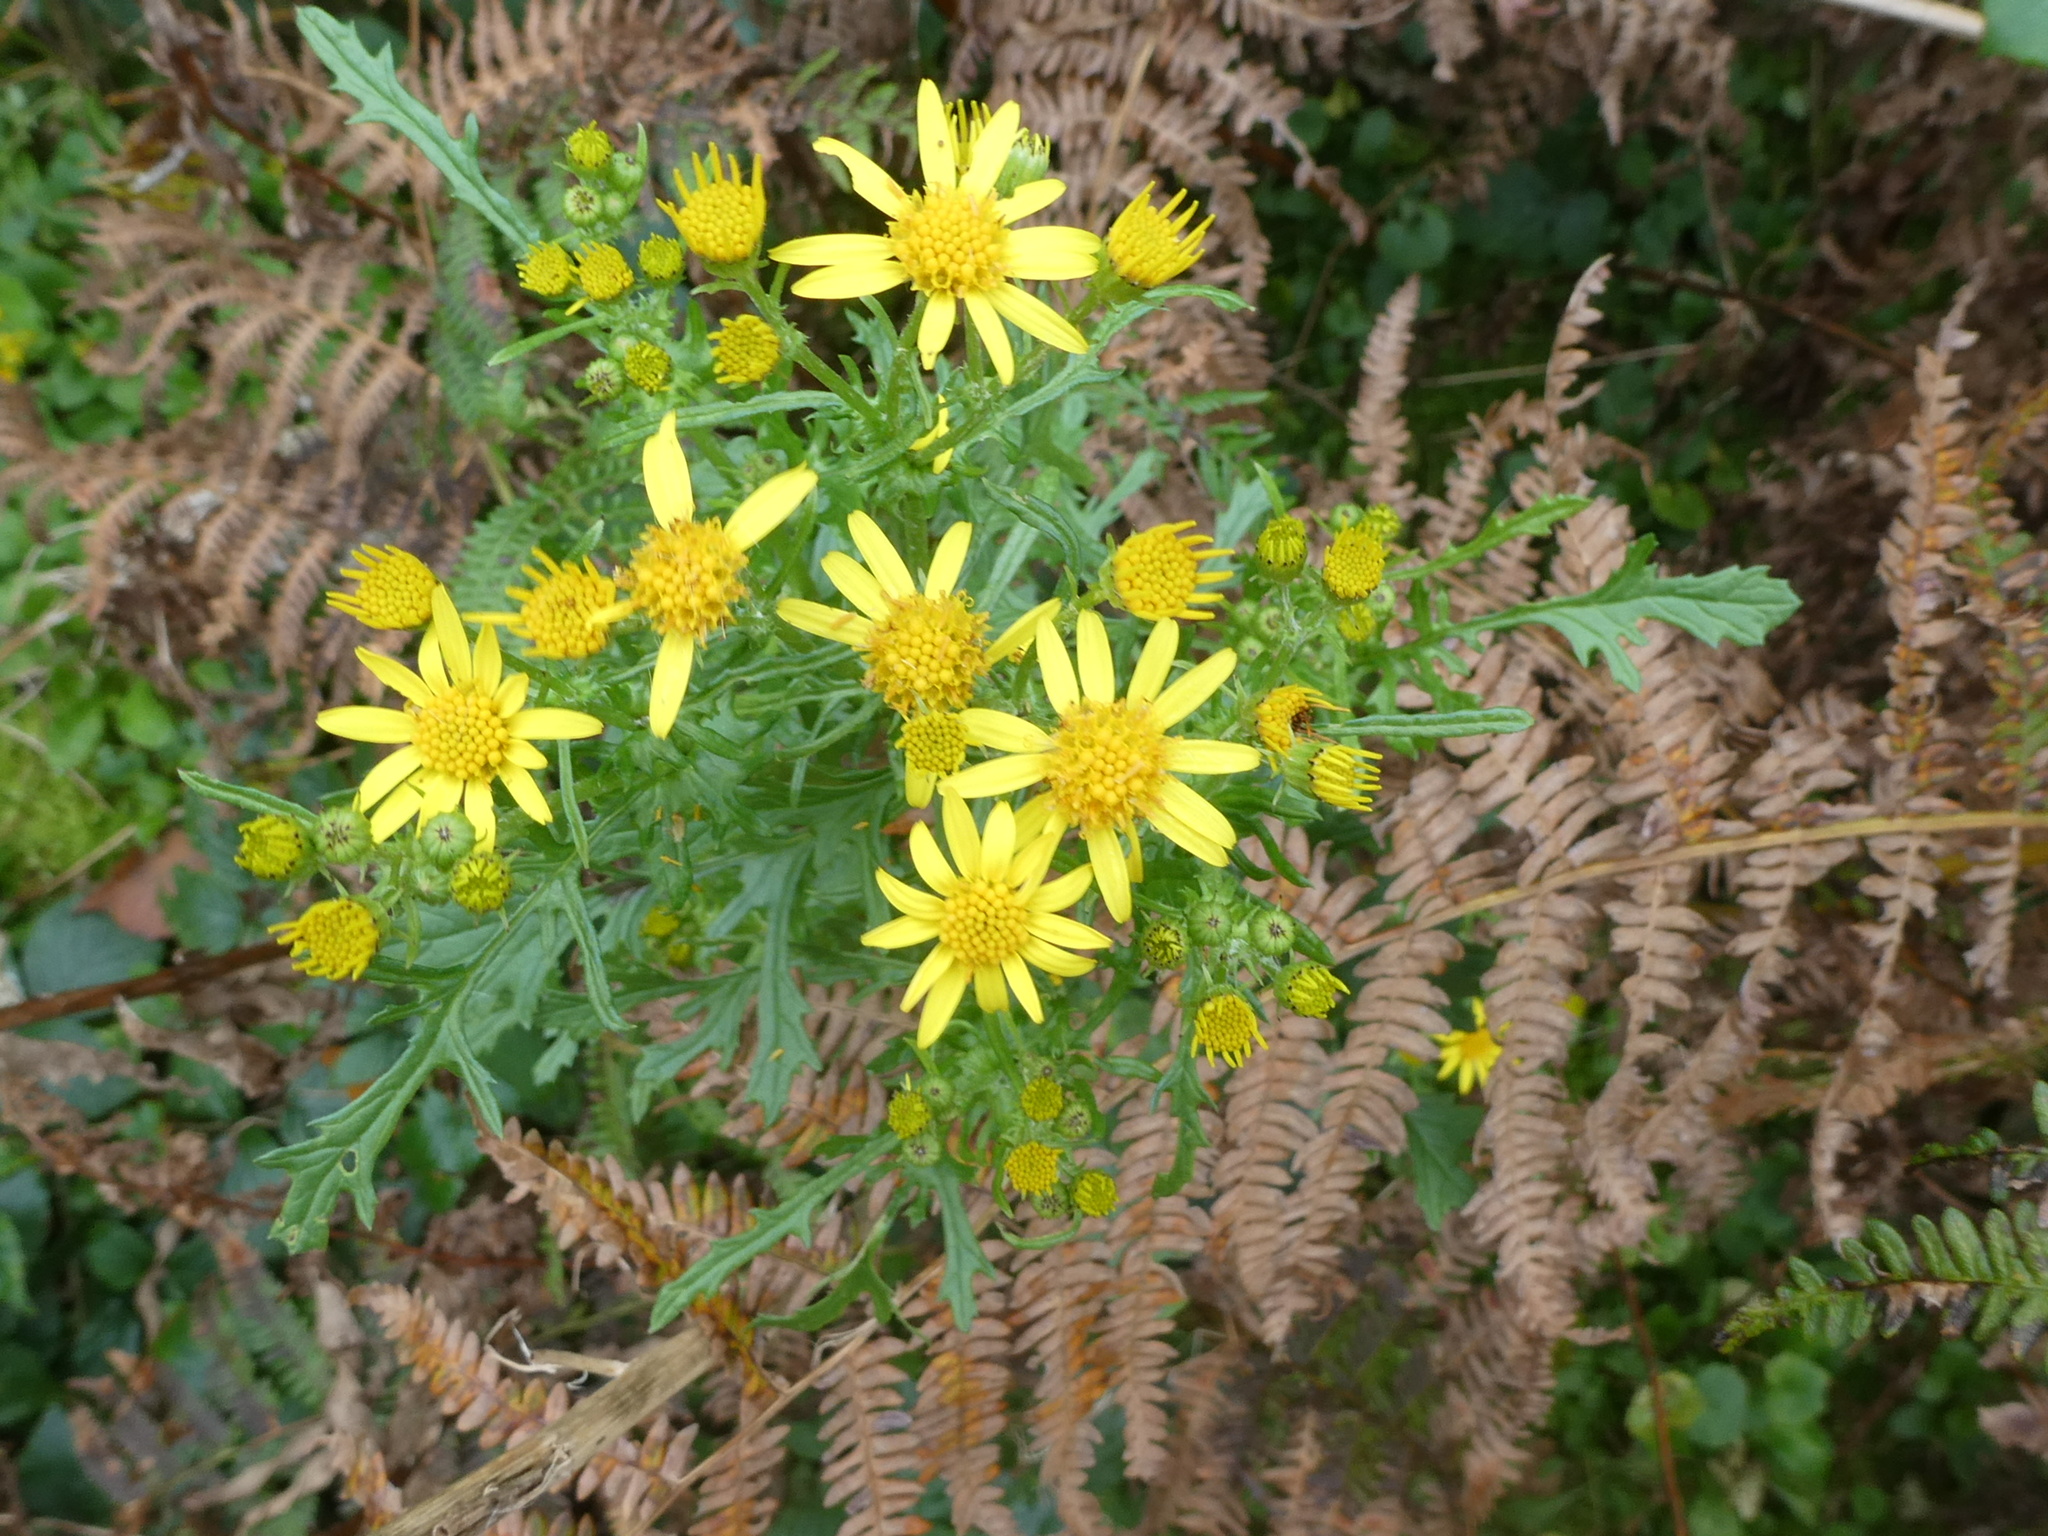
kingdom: Plantae
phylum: Tracheophyta
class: Magnoliopsida
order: Asterales
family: Asteraceae
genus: Jacobaea
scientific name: Jacobaea vulgaris
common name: Stinking willie
